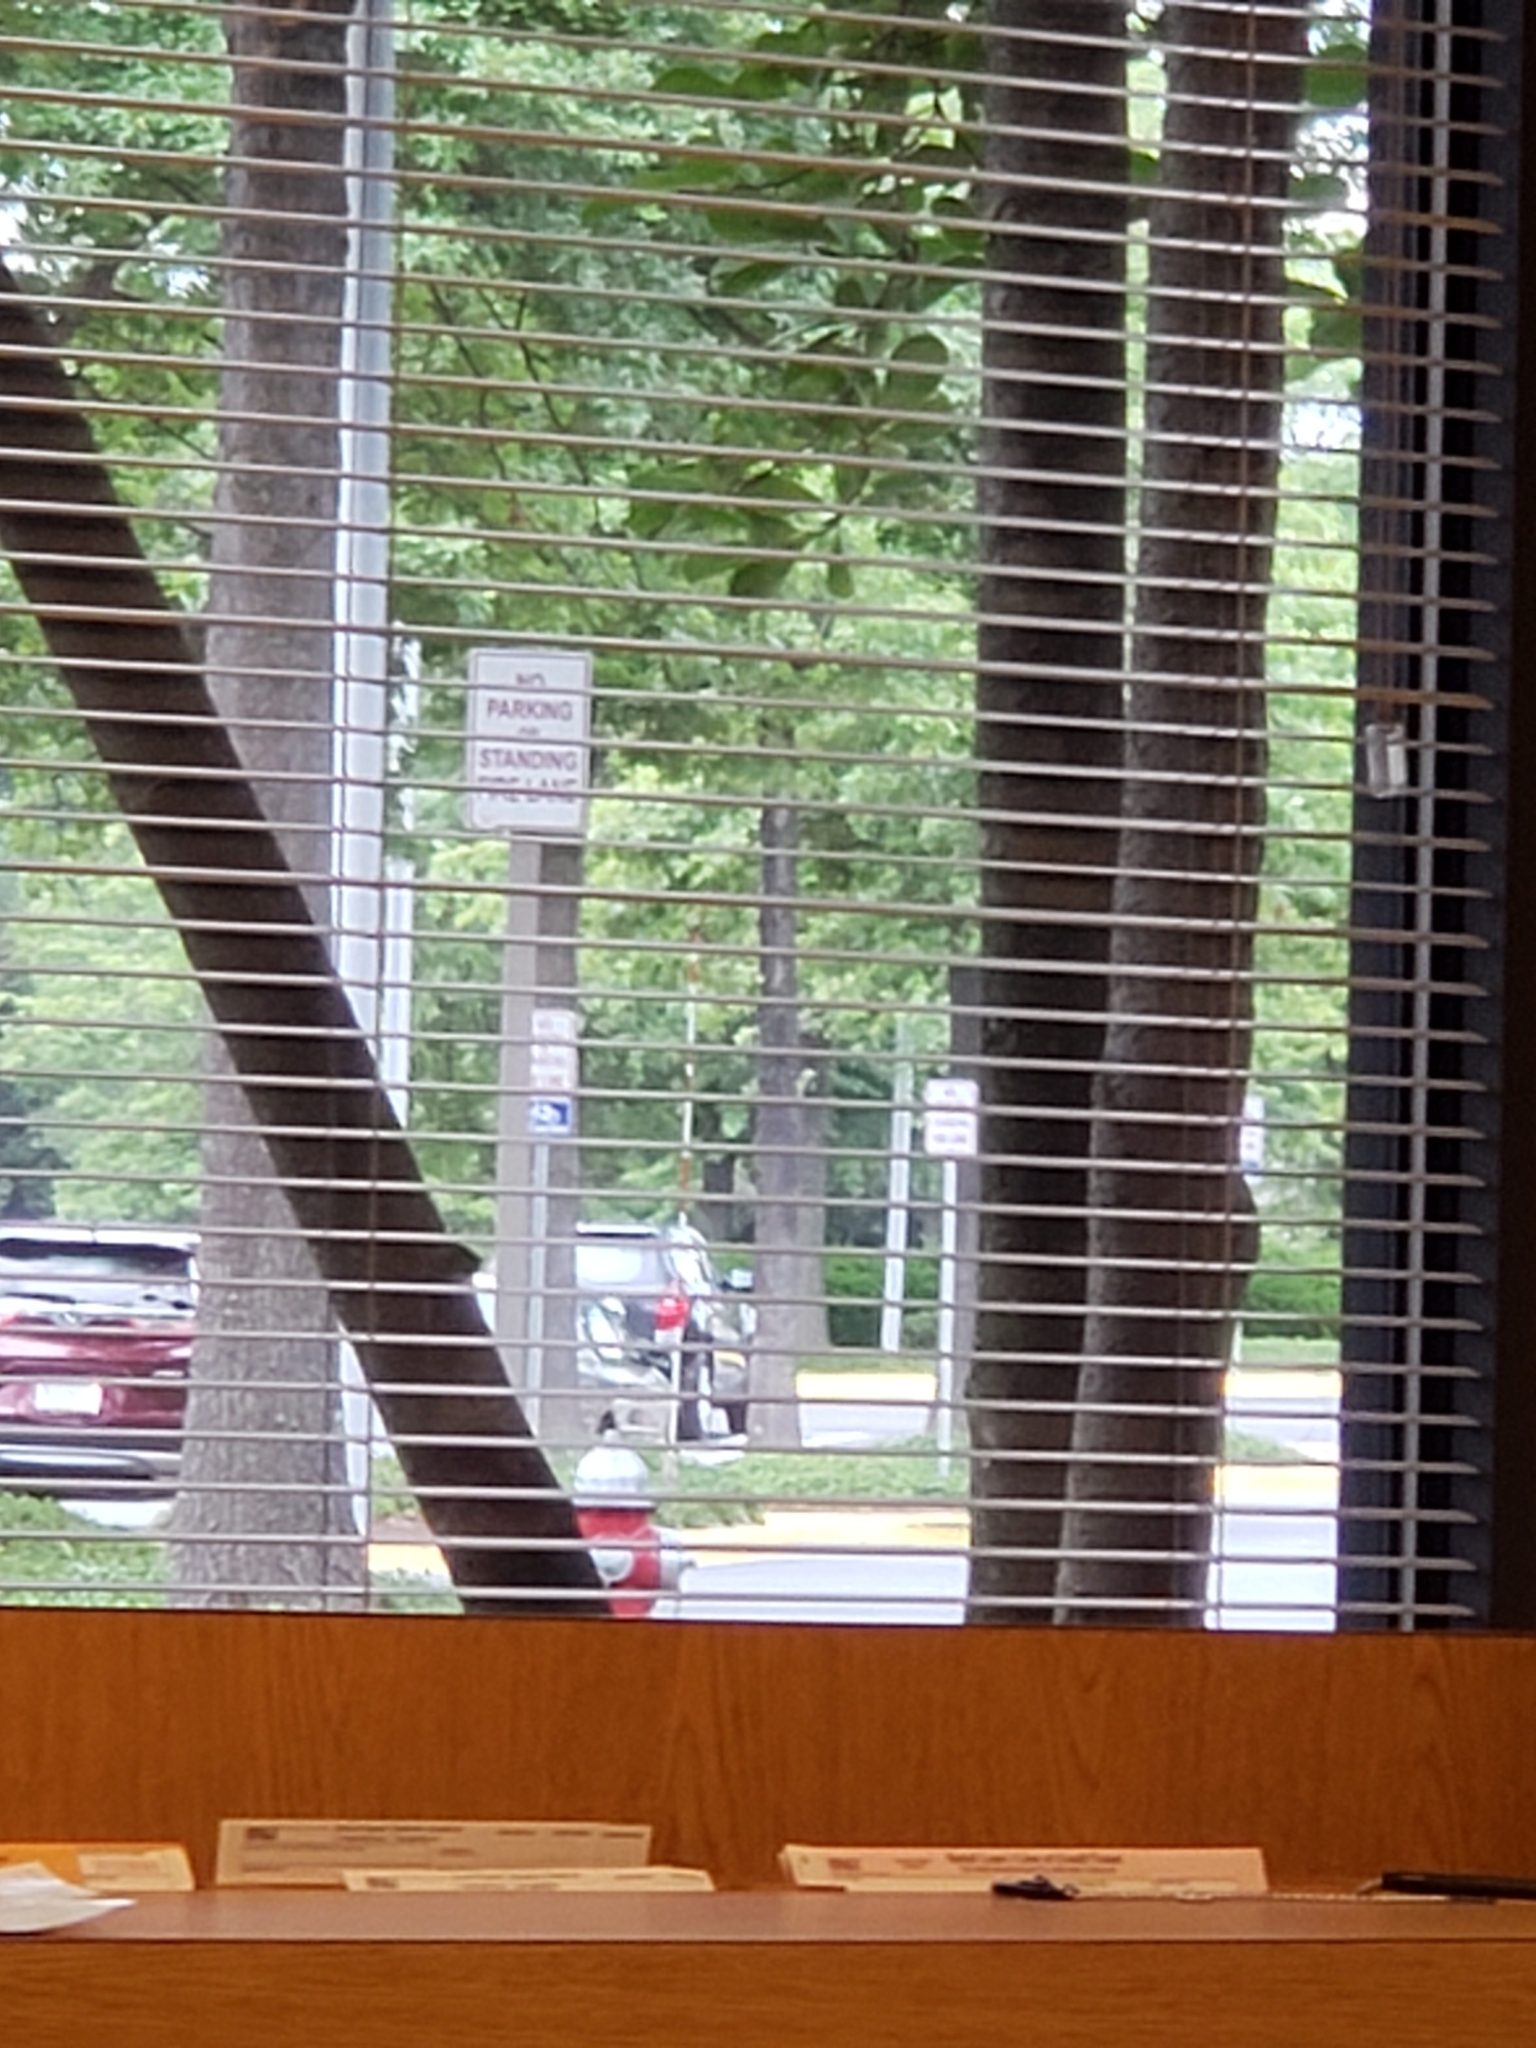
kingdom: Animalia
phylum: Arthropoda
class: Insecta
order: Lepidoptera
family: Geometridae
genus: Costaconvexa
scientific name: Costaconvexa centrostrigaria
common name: Bent-line carpet
